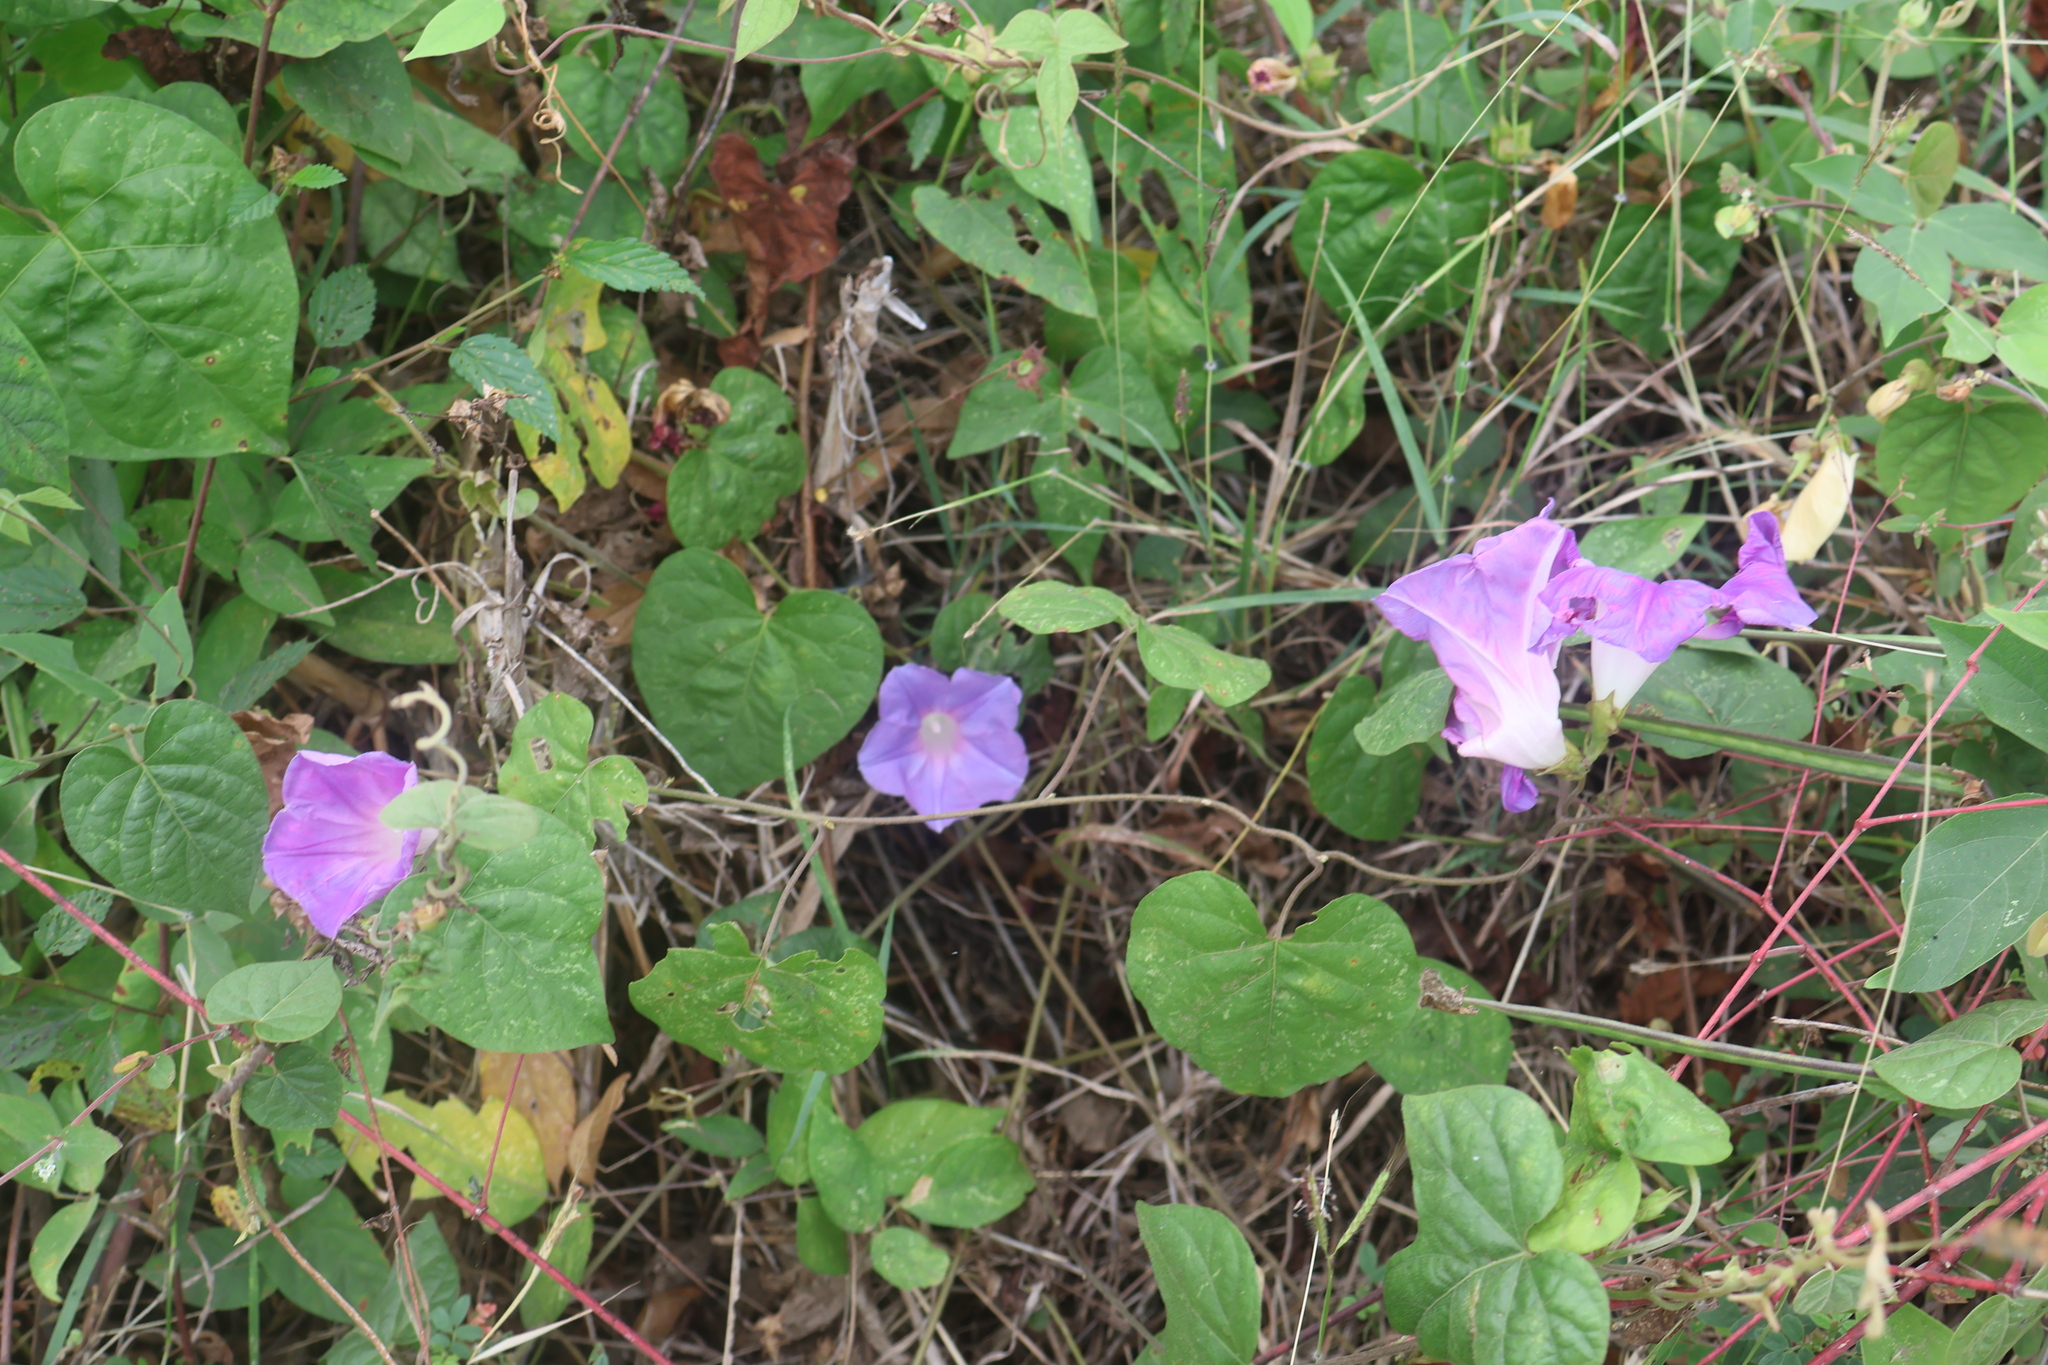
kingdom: Plantae
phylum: Tracheophyta
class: Magnoliopsida
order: Solanales
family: Convolvulaceae
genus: Ipomoea
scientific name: Ipomoea indica
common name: Blue dawnflower
